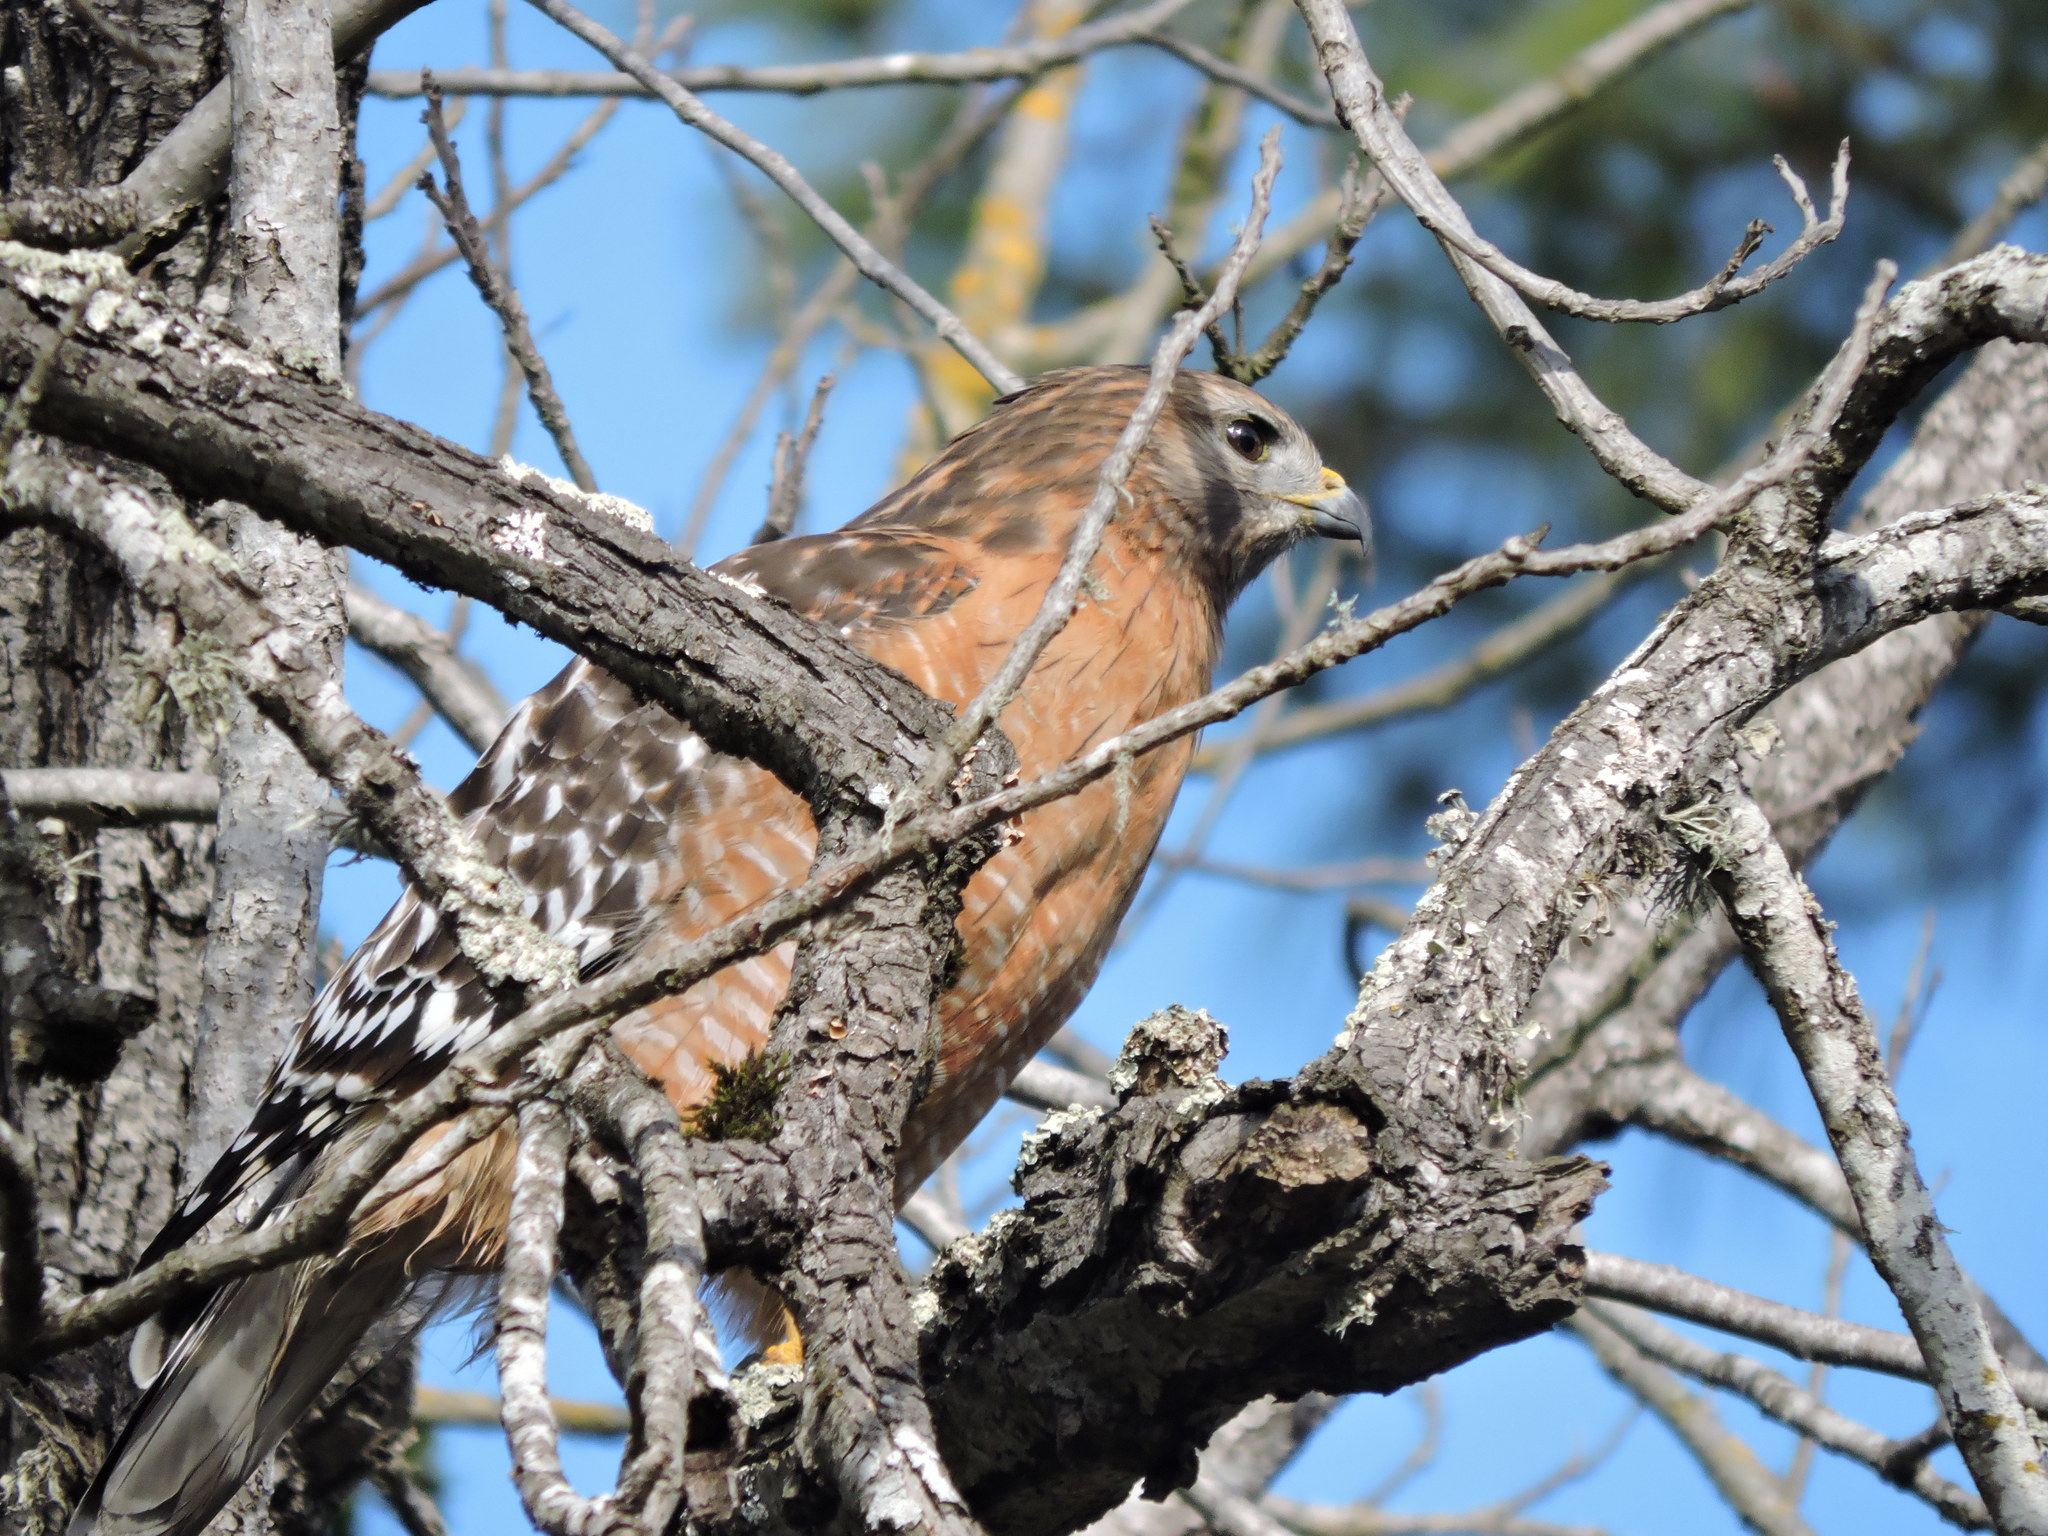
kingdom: Animalia
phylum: Chordata
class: Aves
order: Accipitriformes
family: Accipitridae
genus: Buteo
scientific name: Buteo lineatus
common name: Red-shouldered hawk
